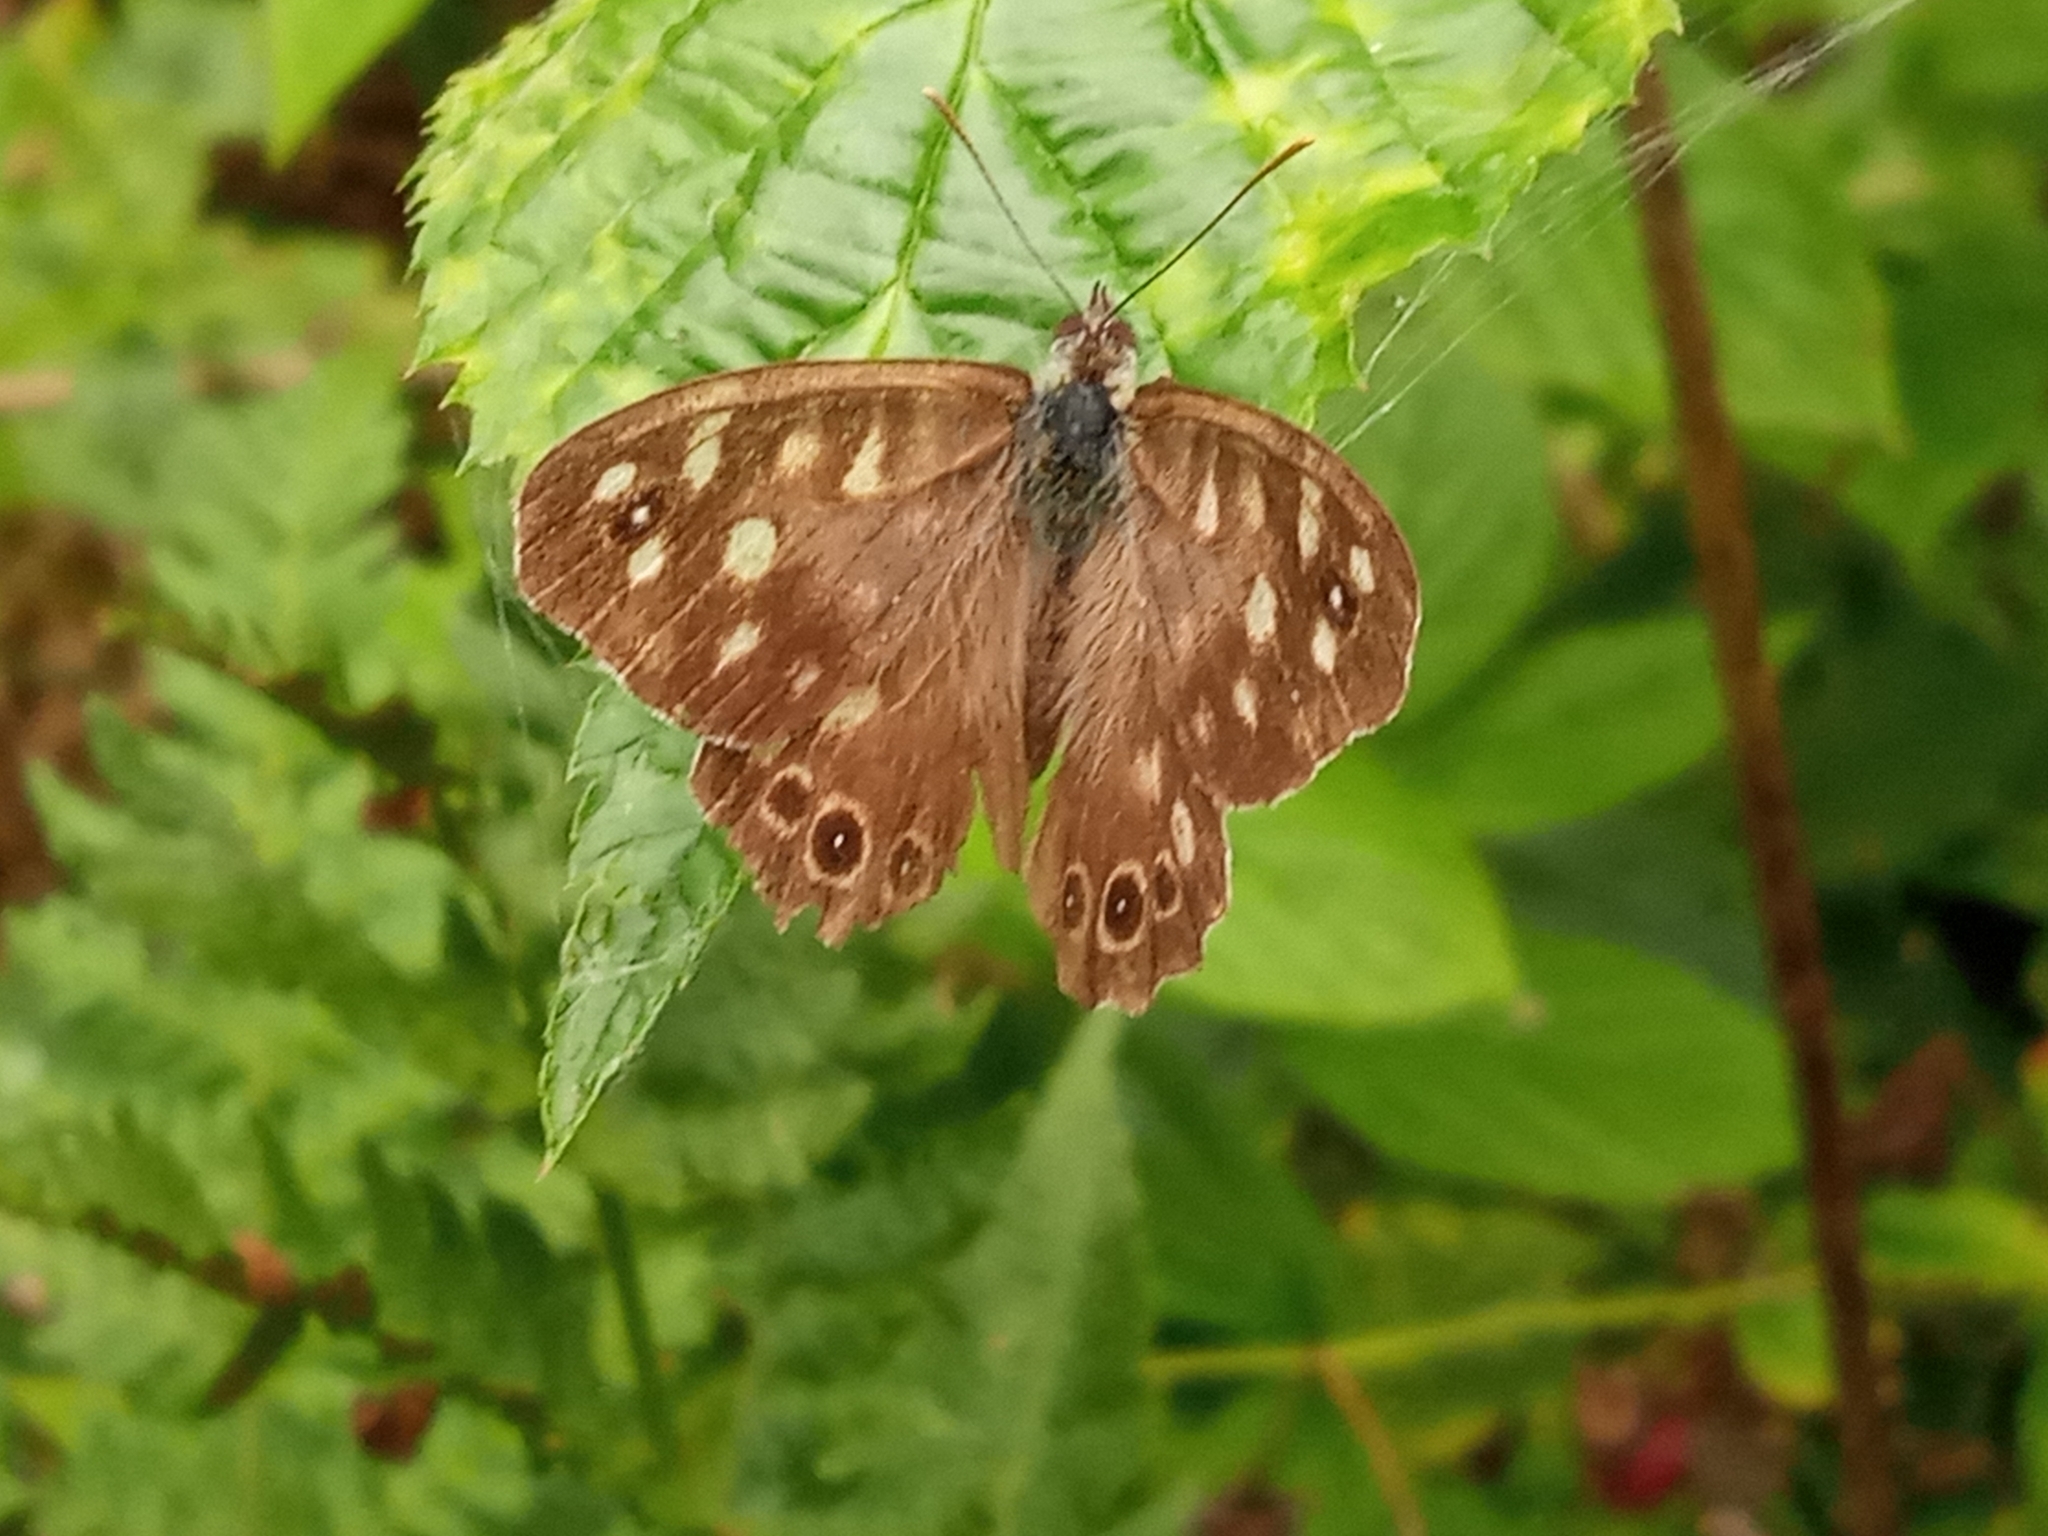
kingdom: Animalia
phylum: Arthropoda
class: Insecta
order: Lepidoptera
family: Nymphalidae
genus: Pararge
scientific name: Pararge aegeria
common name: Speckled wood
